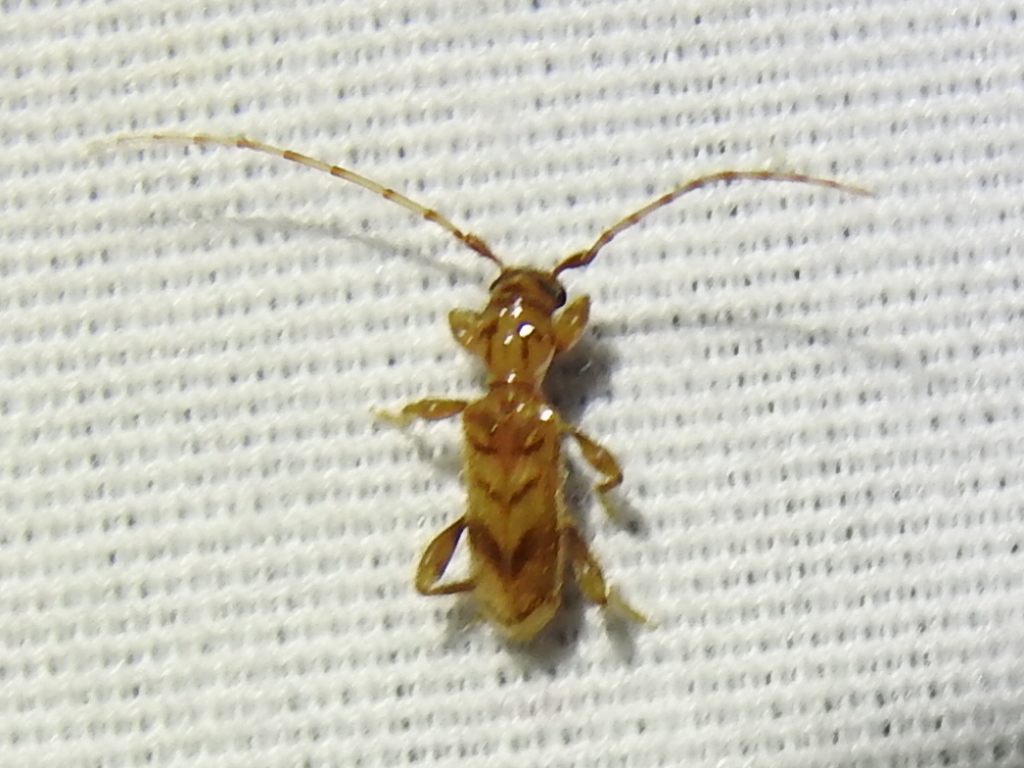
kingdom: Animalia
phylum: Arthropoda
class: Insecta
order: Coleoptera
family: Cerambycidae
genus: Obrium
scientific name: Obrium maculatum
